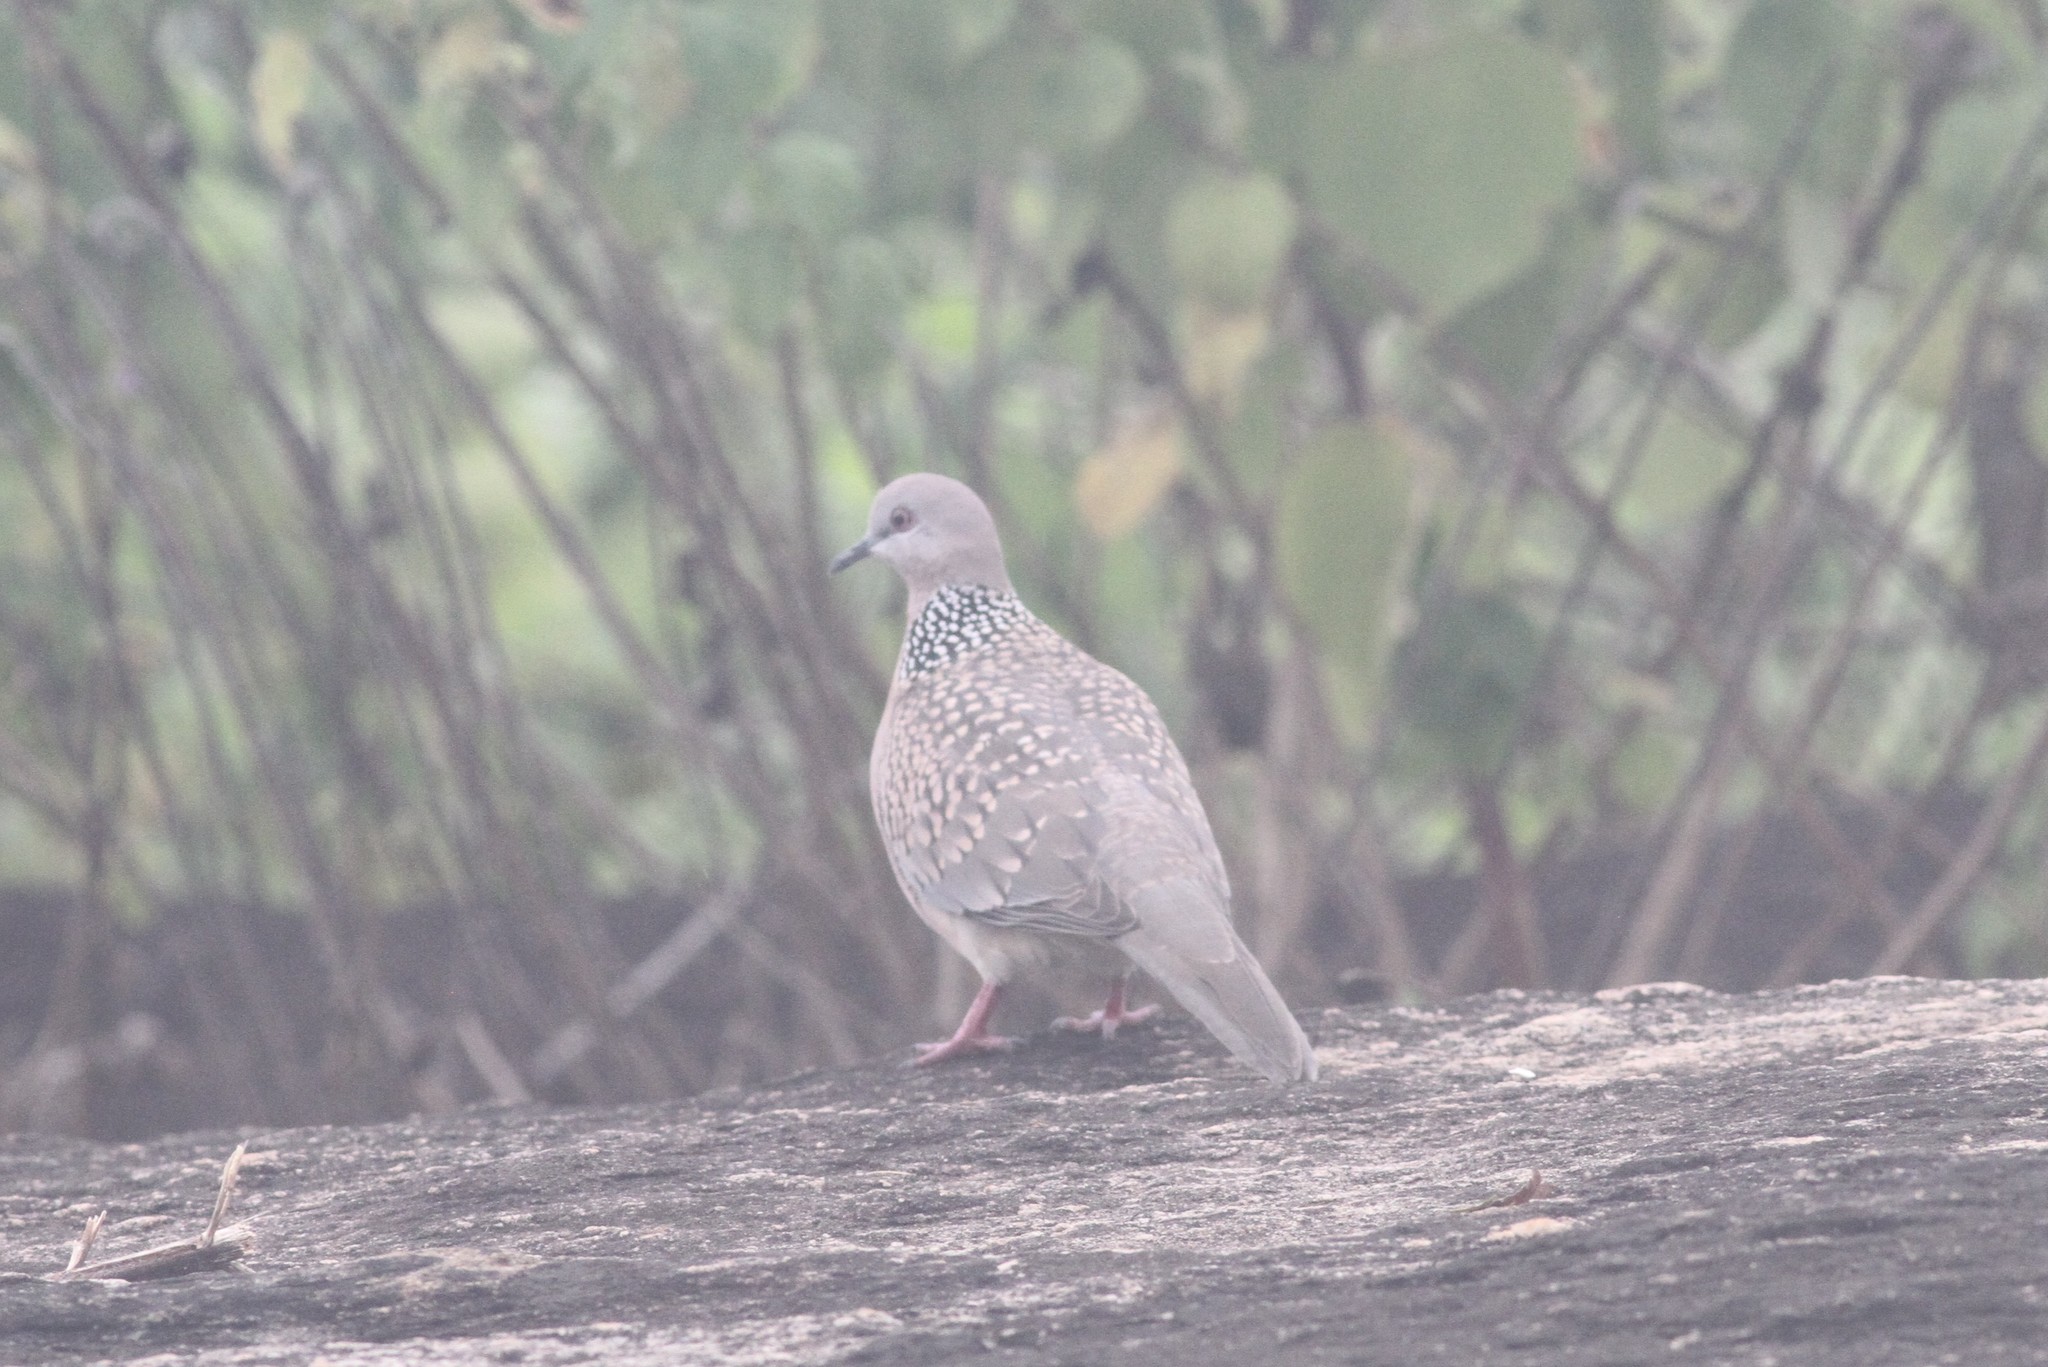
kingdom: Animalia
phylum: Chordata
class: Aves
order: Columbiformes
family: Columbidae
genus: Spilopelia
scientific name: Spilopelia chinensis
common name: Spotted dove
